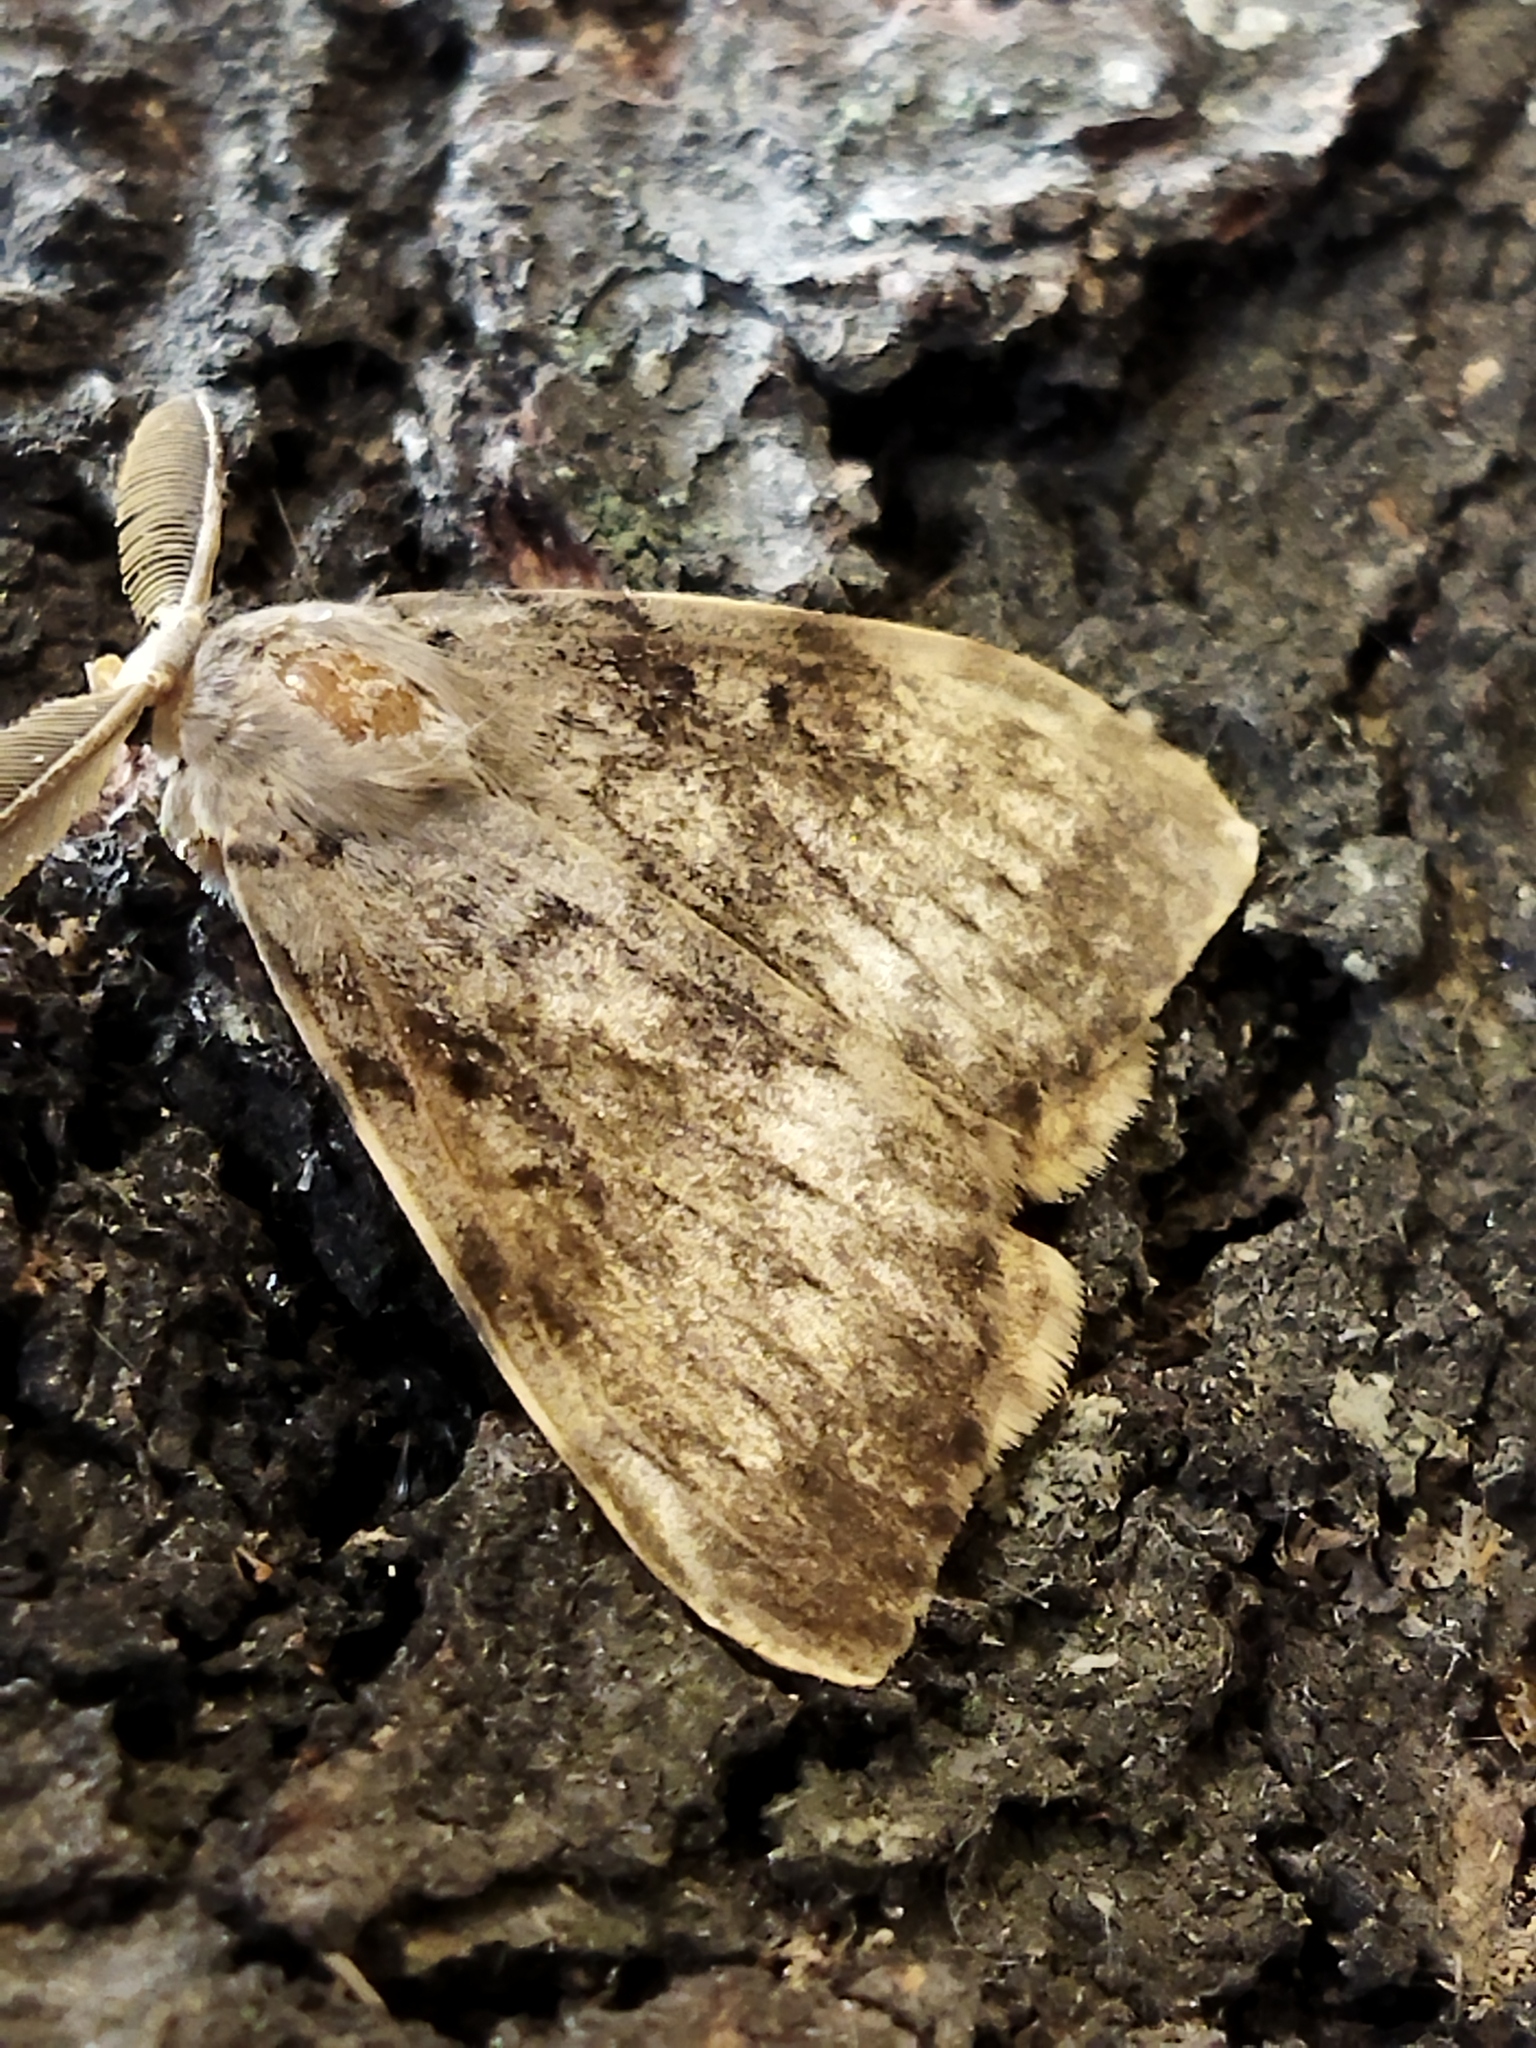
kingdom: Animalia
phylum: Arthropoda
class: Insecta
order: Lepidoptera
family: Erebidae
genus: Lymantria
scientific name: Lymantria dispar
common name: Gypsy moth
